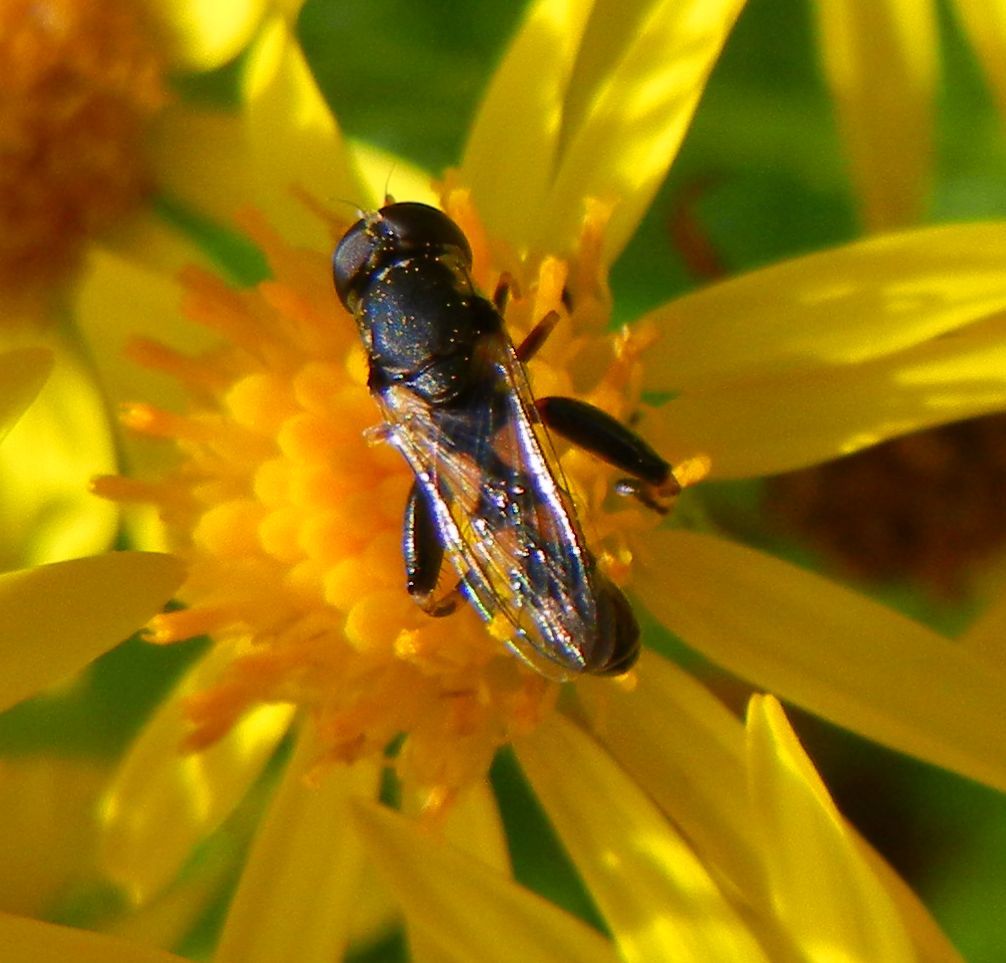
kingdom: Animalia
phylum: Arthropoda
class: Insecta
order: Diptera
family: Syrphidae
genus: Syritta
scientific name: Syritta pipiens
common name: Hover fly
